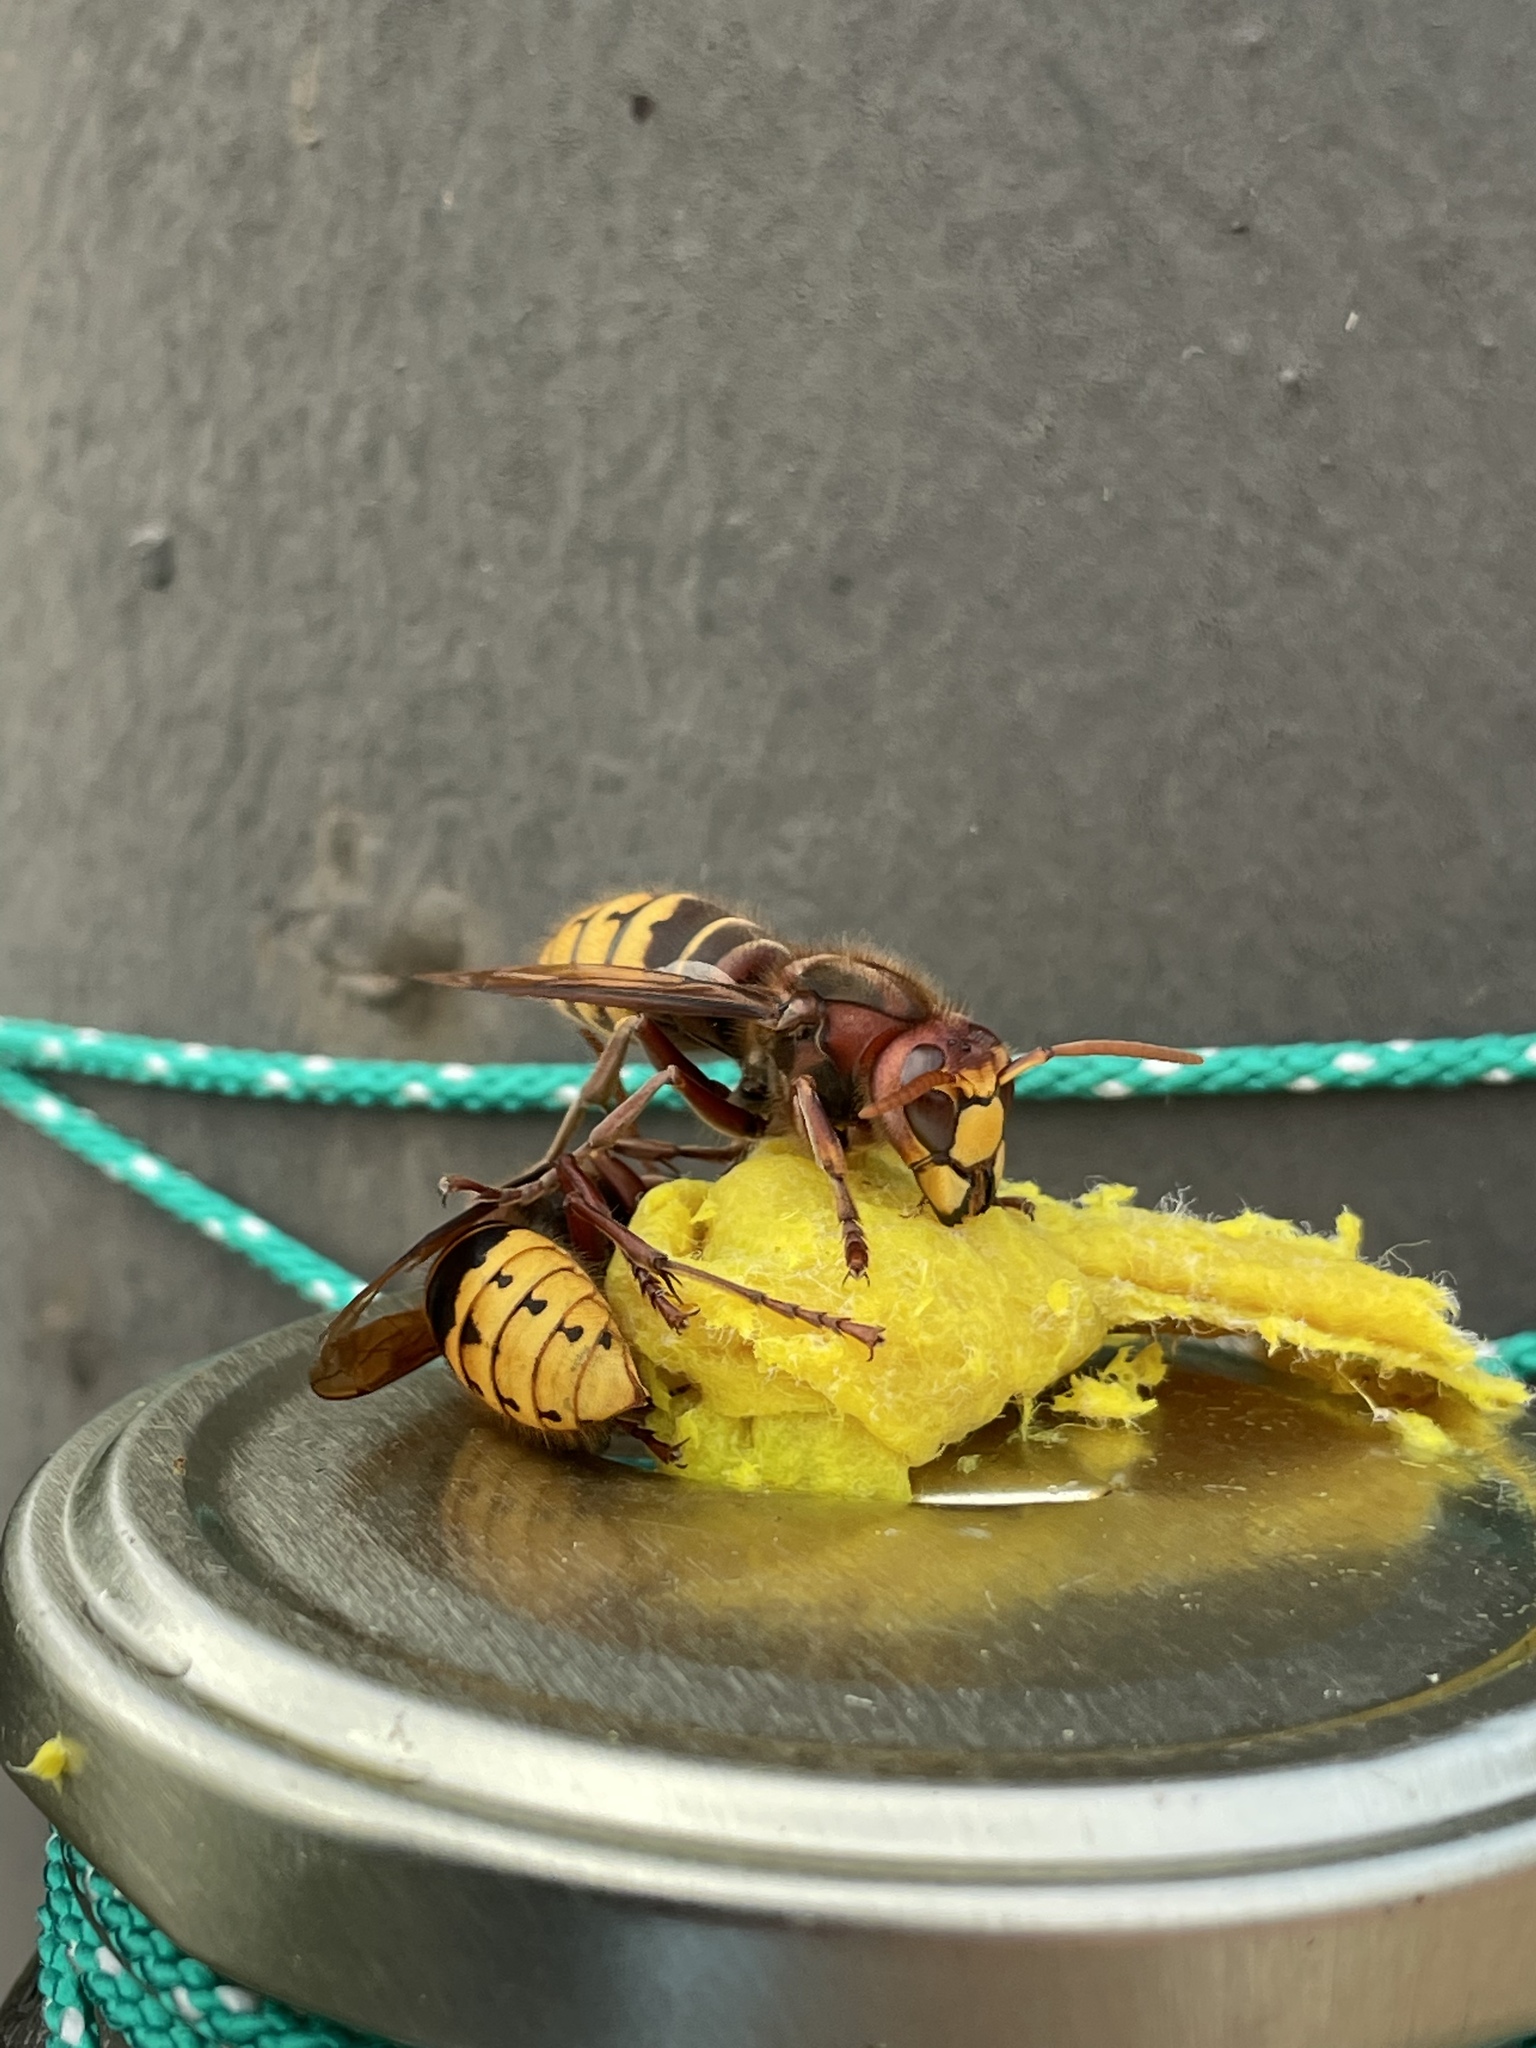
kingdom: Animalia
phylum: Arthropoda
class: Insecta
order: Hymenoptera
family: Vespidae
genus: Vespa
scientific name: Vespa crabro
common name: Hornet
